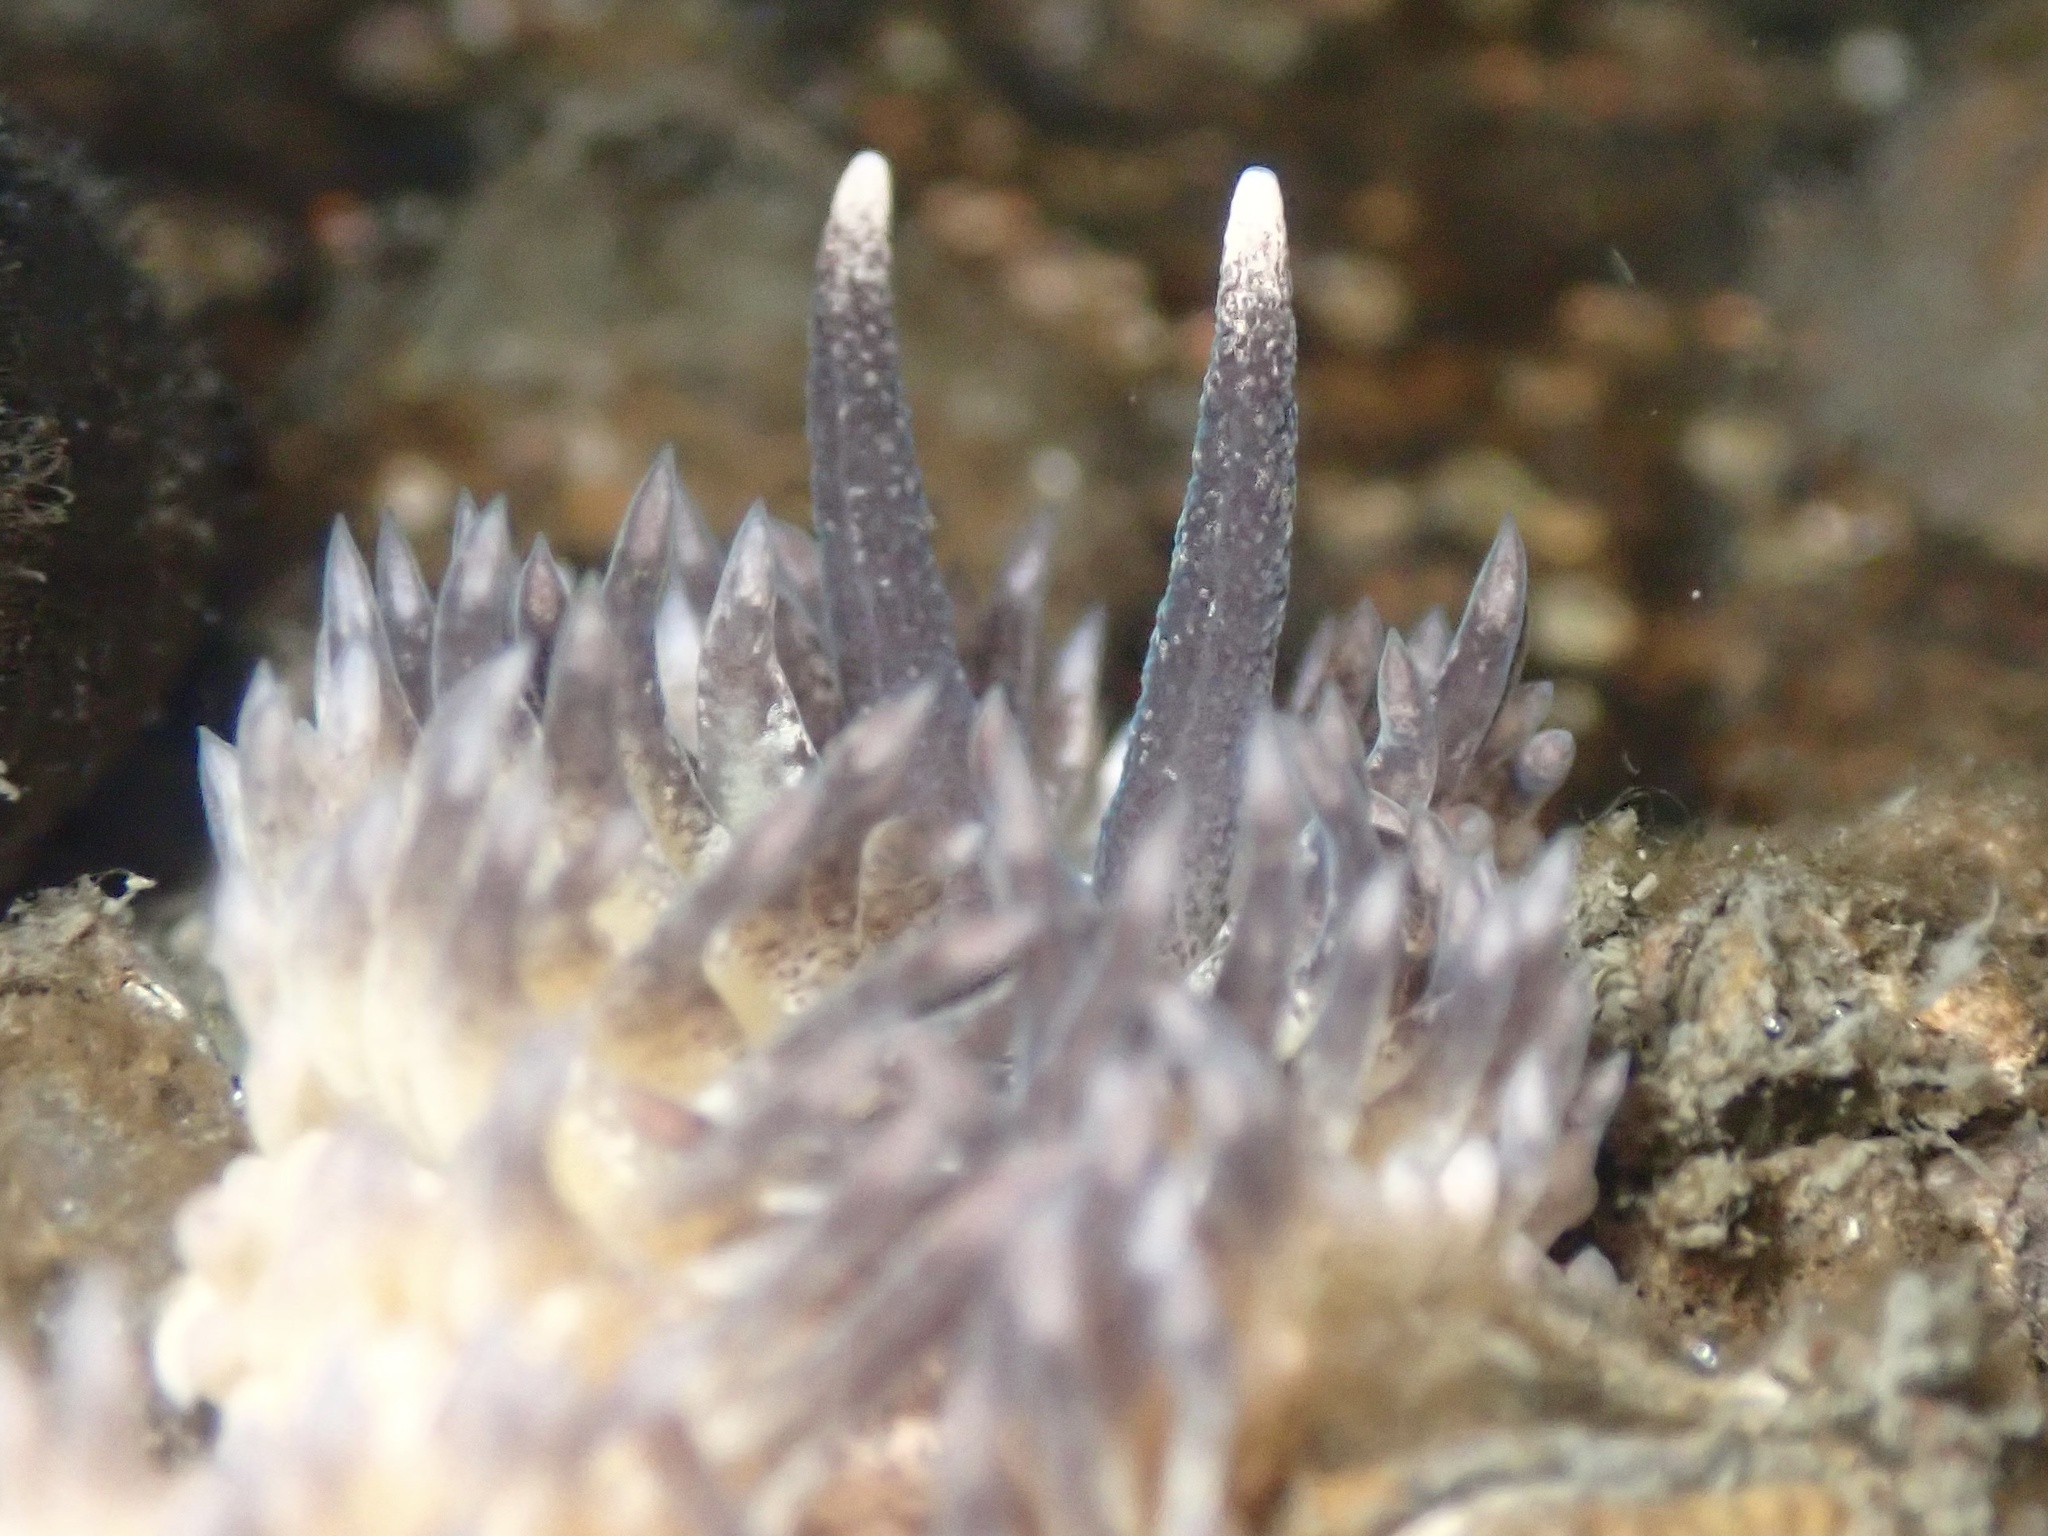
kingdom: Animalia
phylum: Mollusca
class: Gastropoda
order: Nudibranchia
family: Aeolidiidae
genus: Aeolidia
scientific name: Aeolidia papillosa
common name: Common grey sea slug
